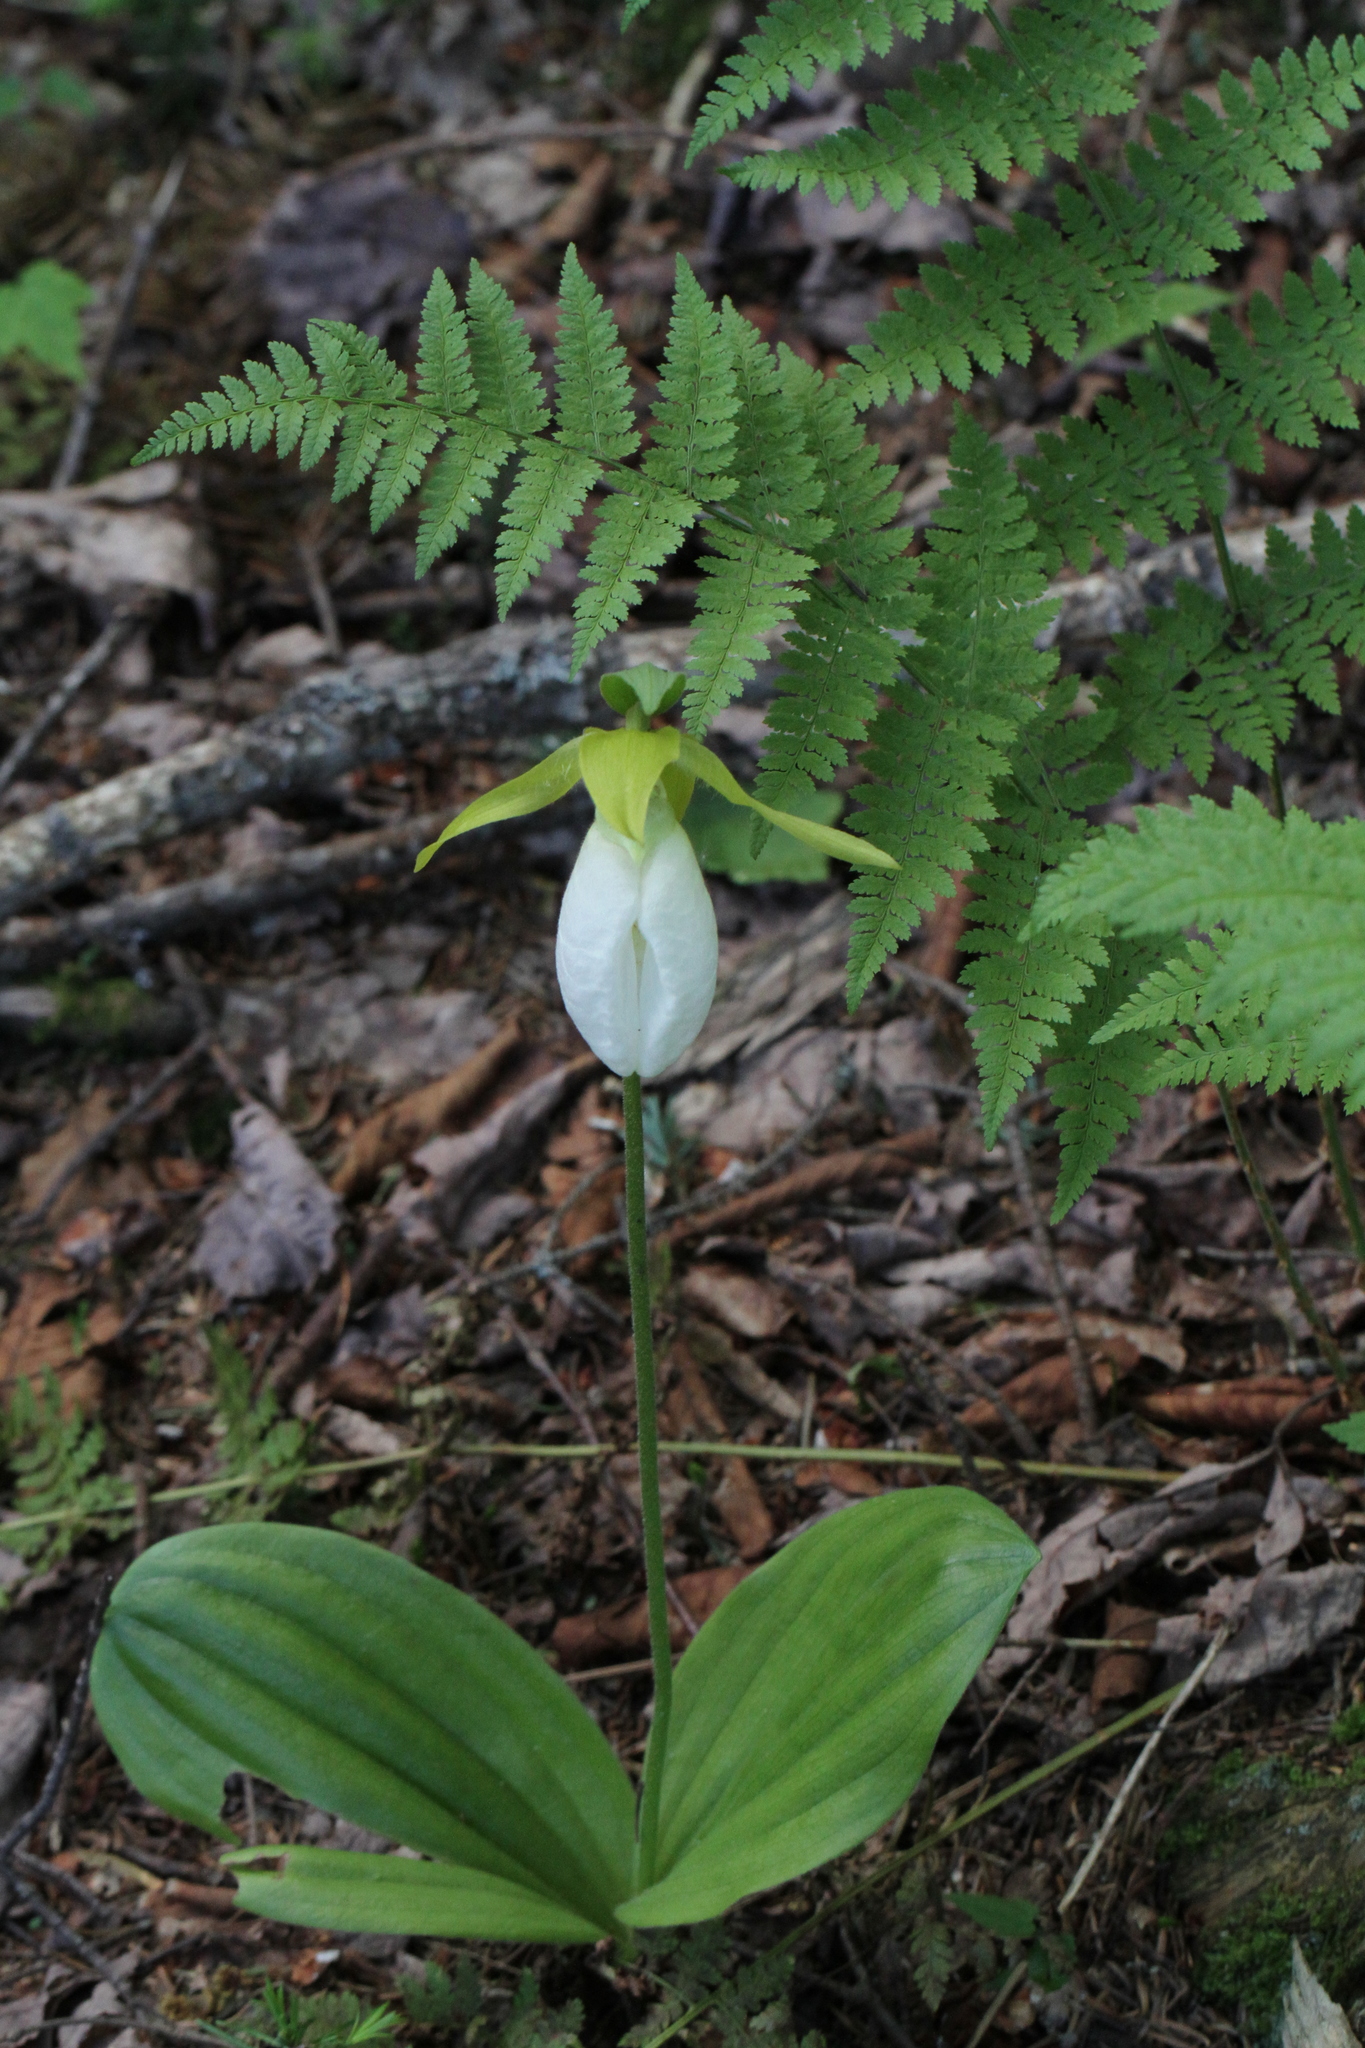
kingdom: Plantae
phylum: Tracheophyta
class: Liliopsida
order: Asparagales
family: Orchidaceae
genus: Cypripedium
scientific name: Cypripedium acaule
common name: Pink lady's-slipper
